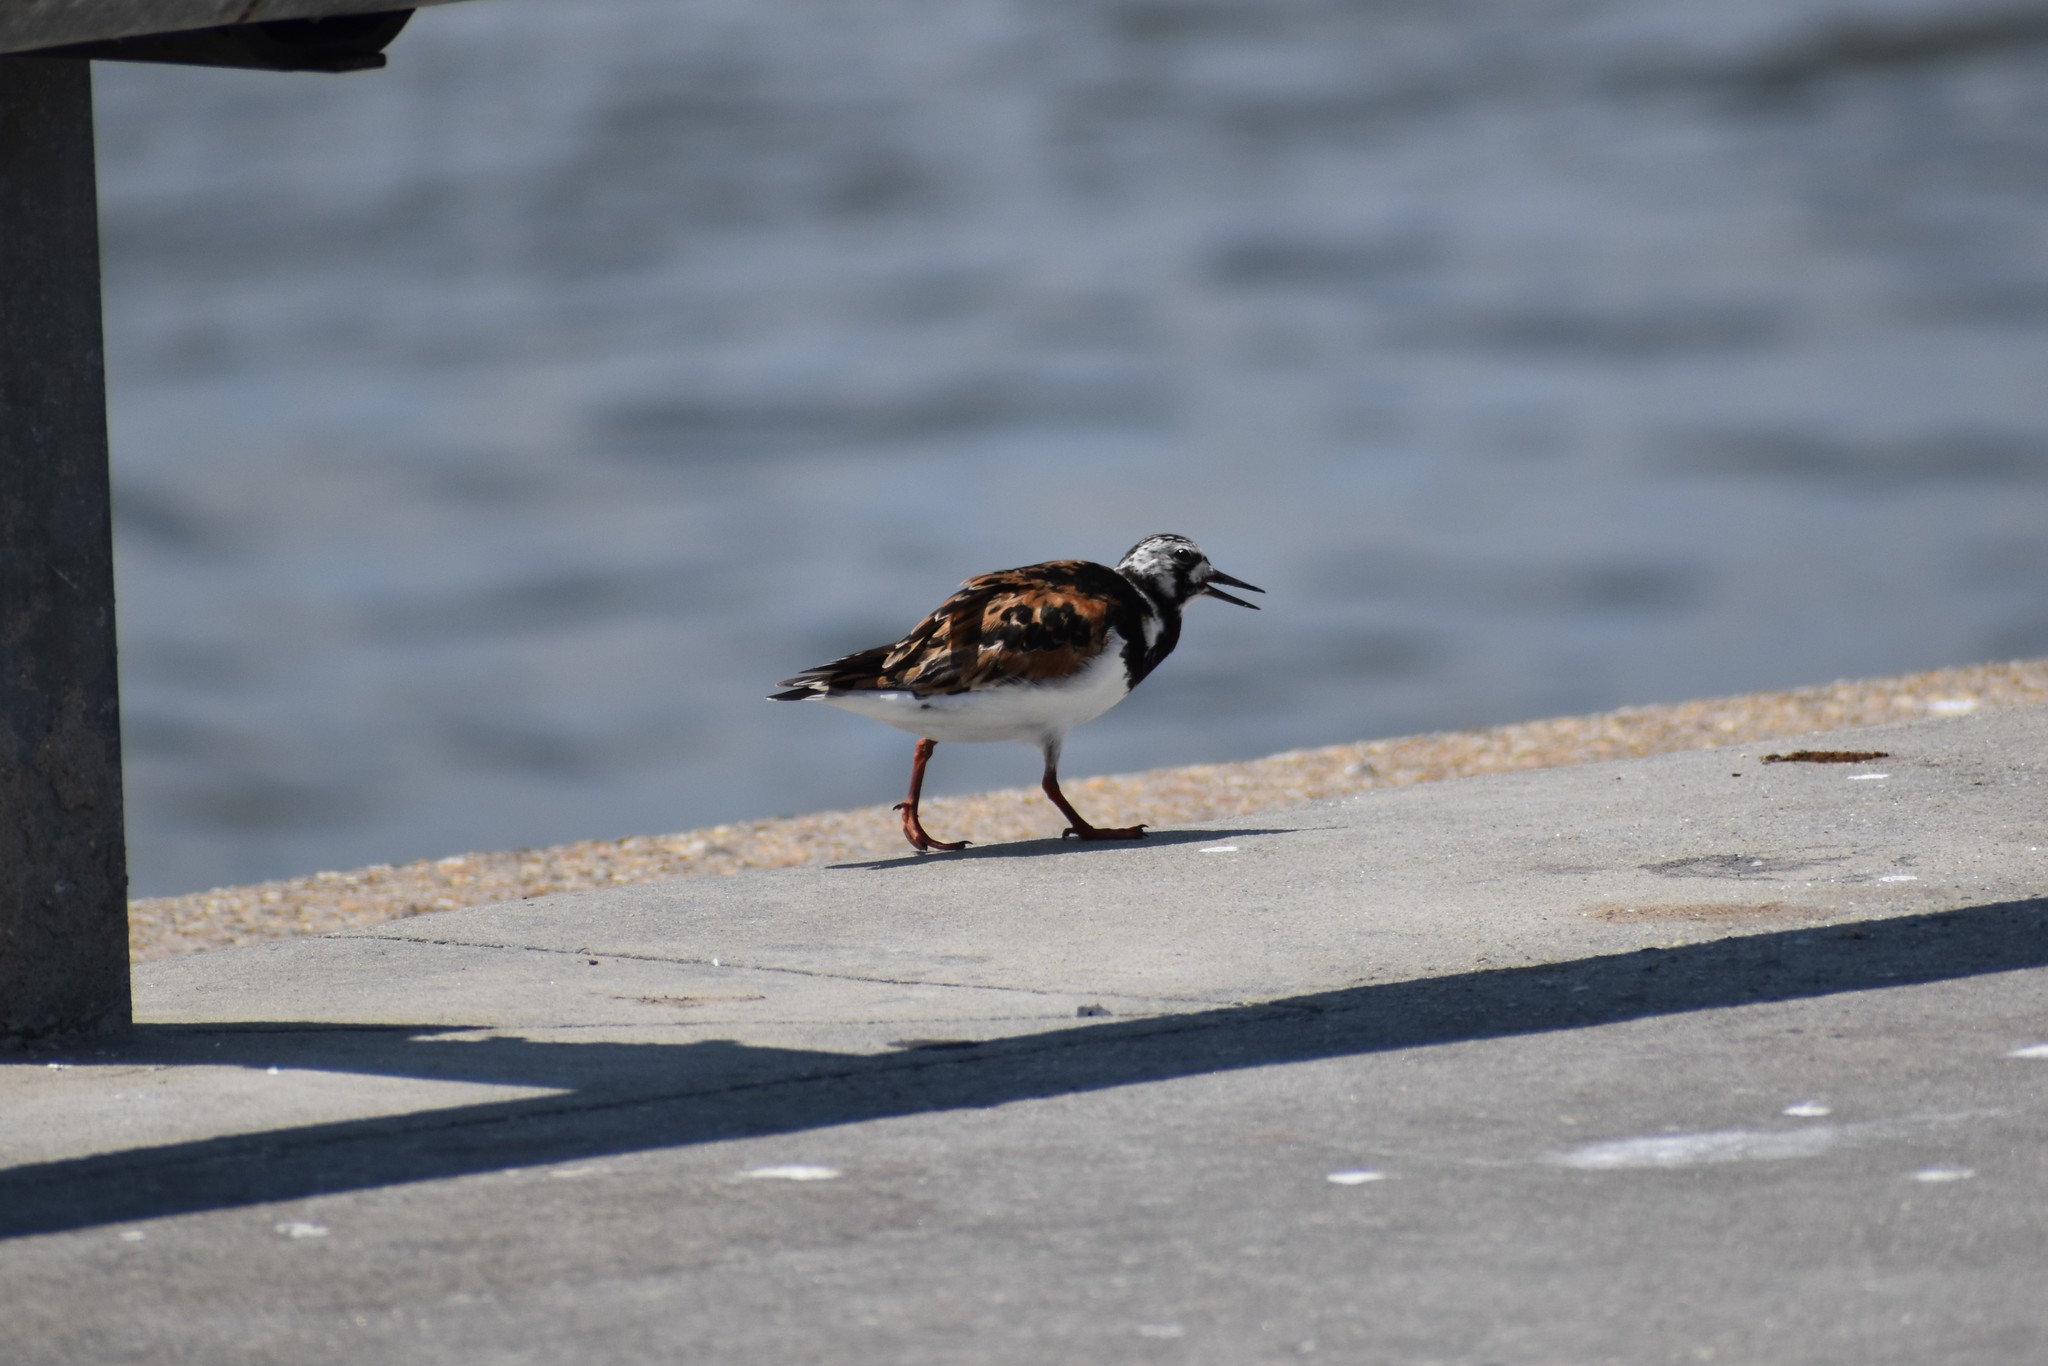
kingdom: Animalia
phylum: Chordata
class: Aves
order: Charadriiformes
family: Scolopacidae
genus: Arenaria
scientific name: Arenaria interpres
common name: Ruddy turnstone
